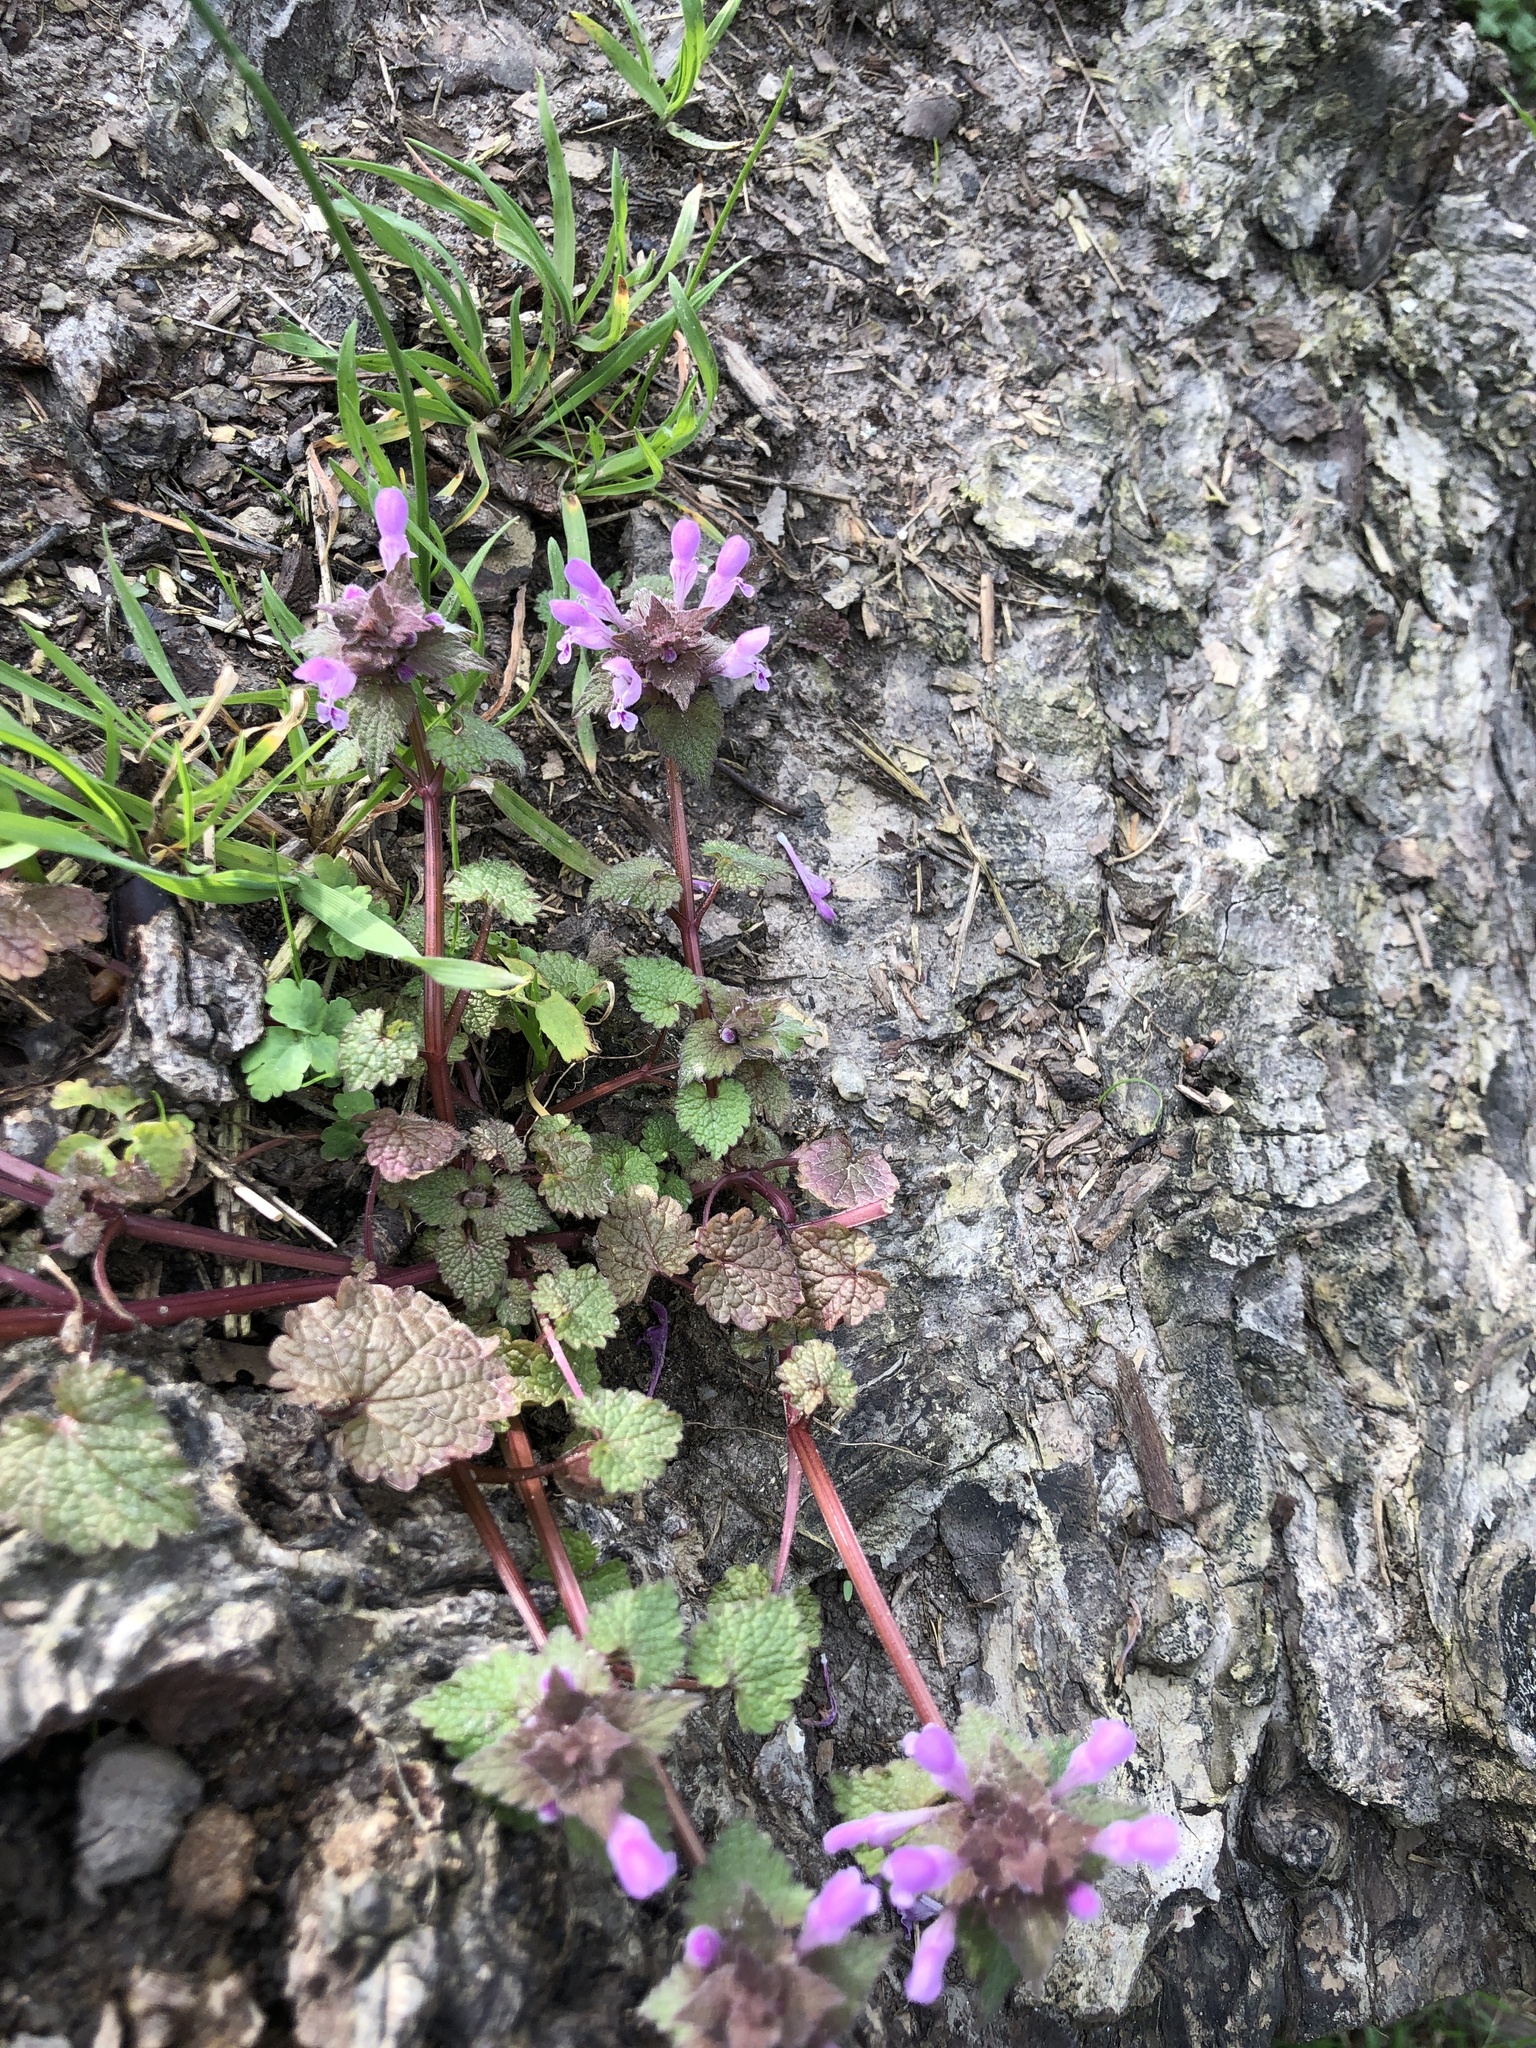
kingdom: Plantae
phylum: Tracheophyta
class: Magnoliopsida
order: Lamiales
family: Lamiaceae
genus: Lamium
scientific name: Lamium purpureum
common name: Red dead-nettle
